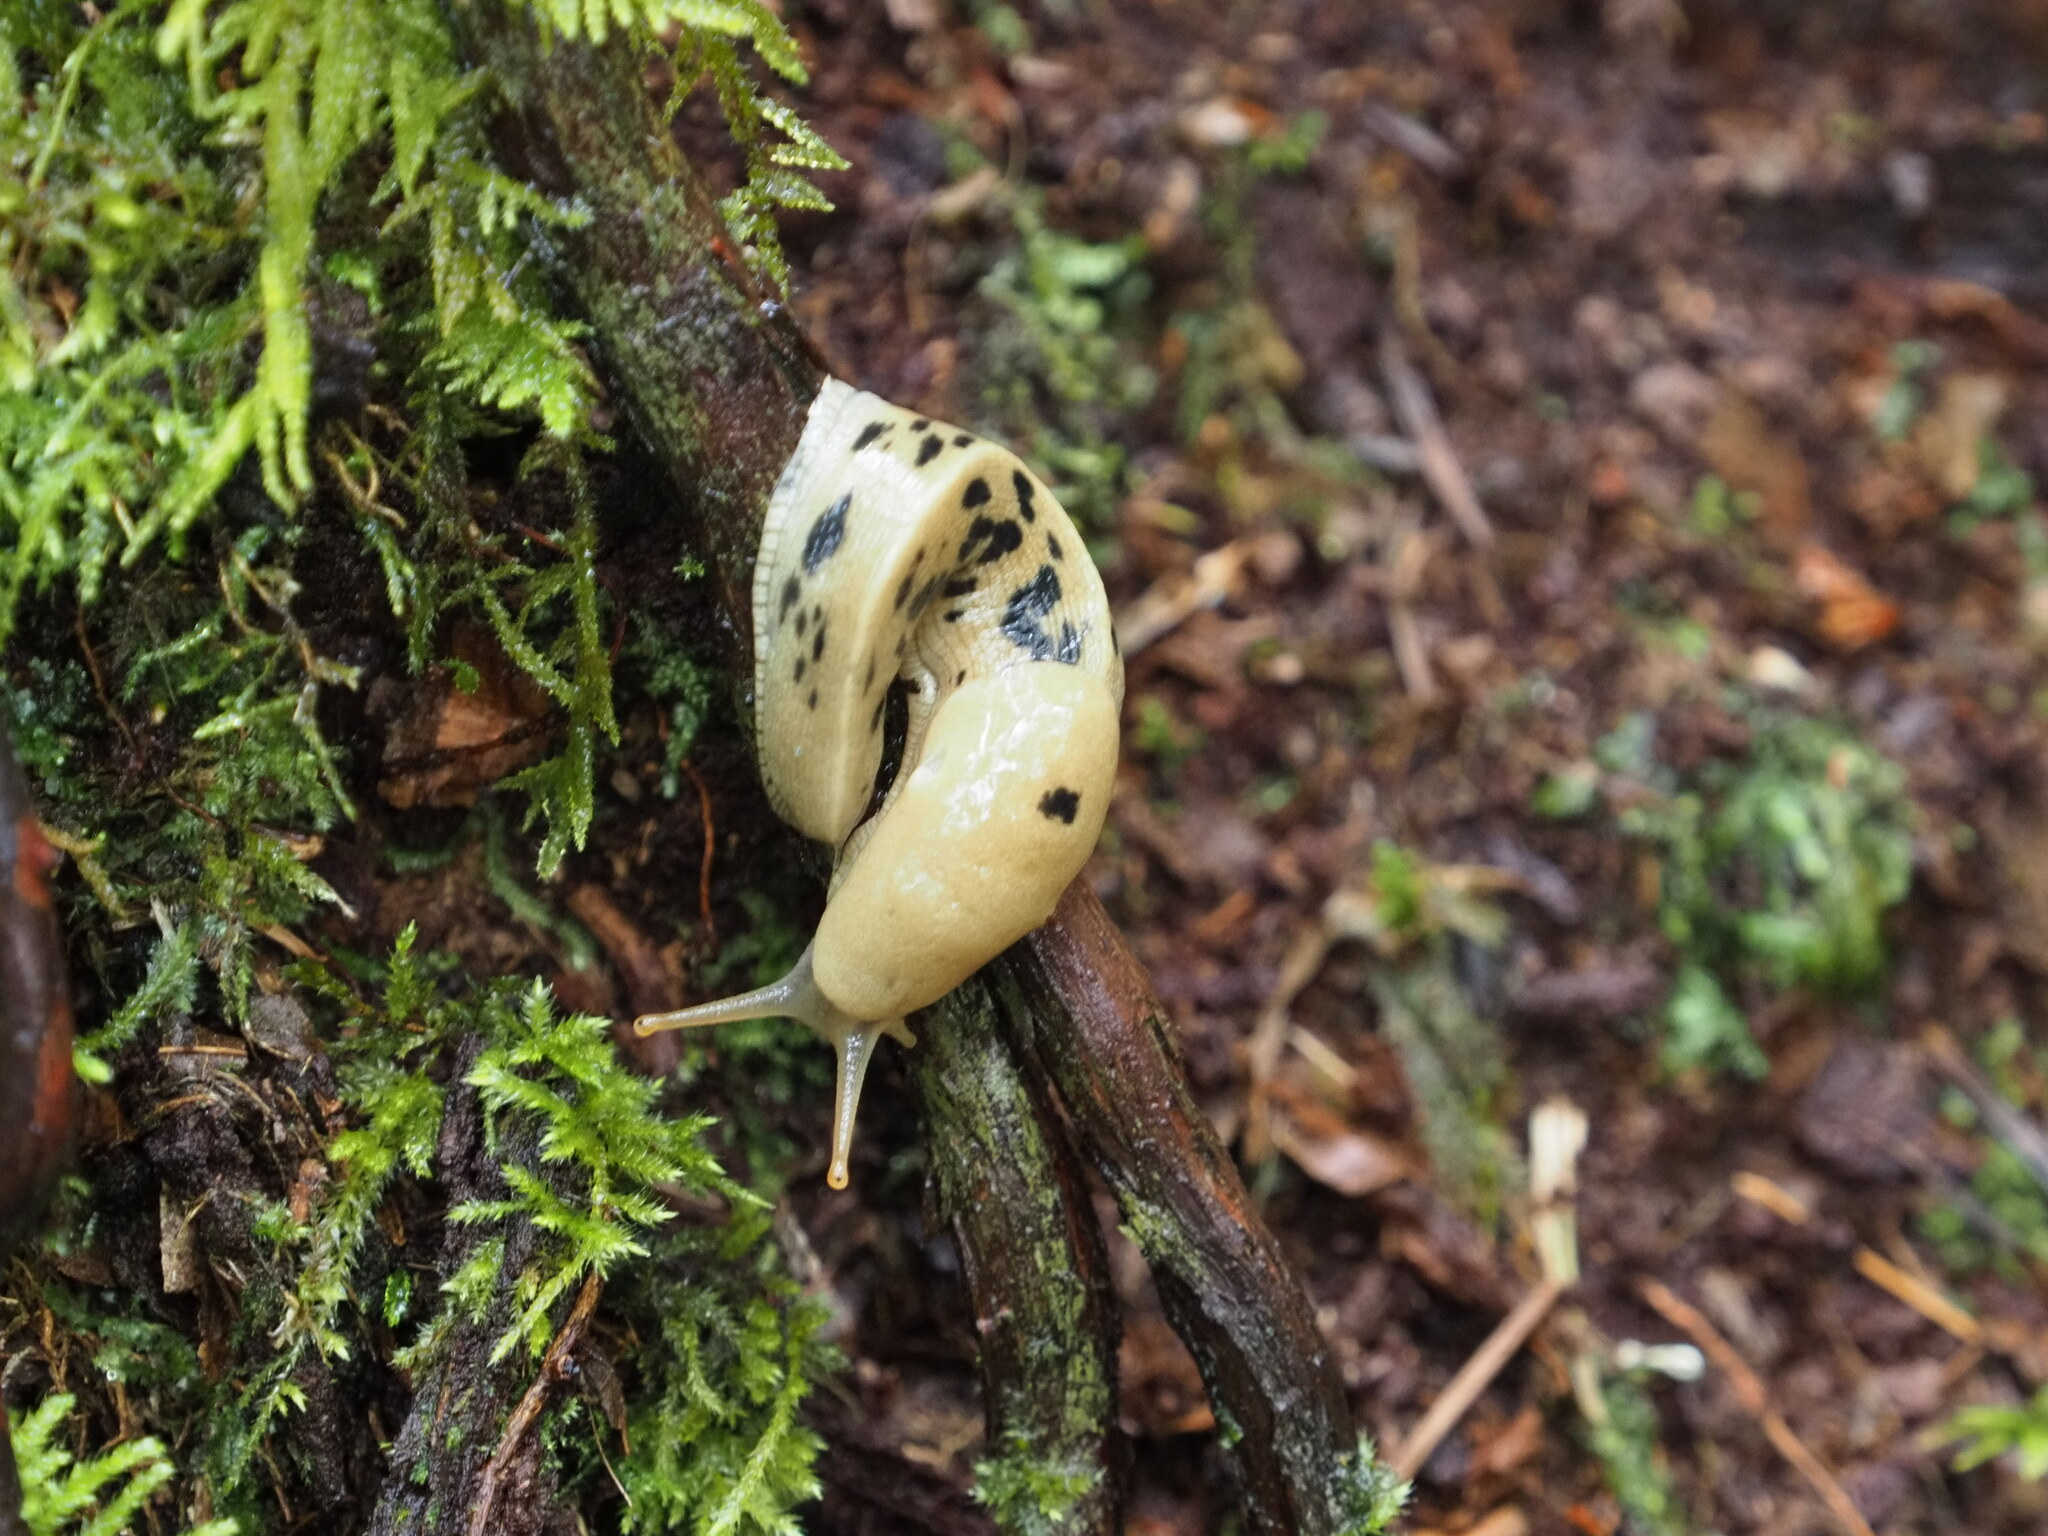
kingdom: Animalia
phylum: Mollusca
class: Gastropoda
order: Stylommatophora
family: Ariolimacidae
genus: Ariolimax
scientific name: Ariolimax columbianus
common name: Pacific banana slug
